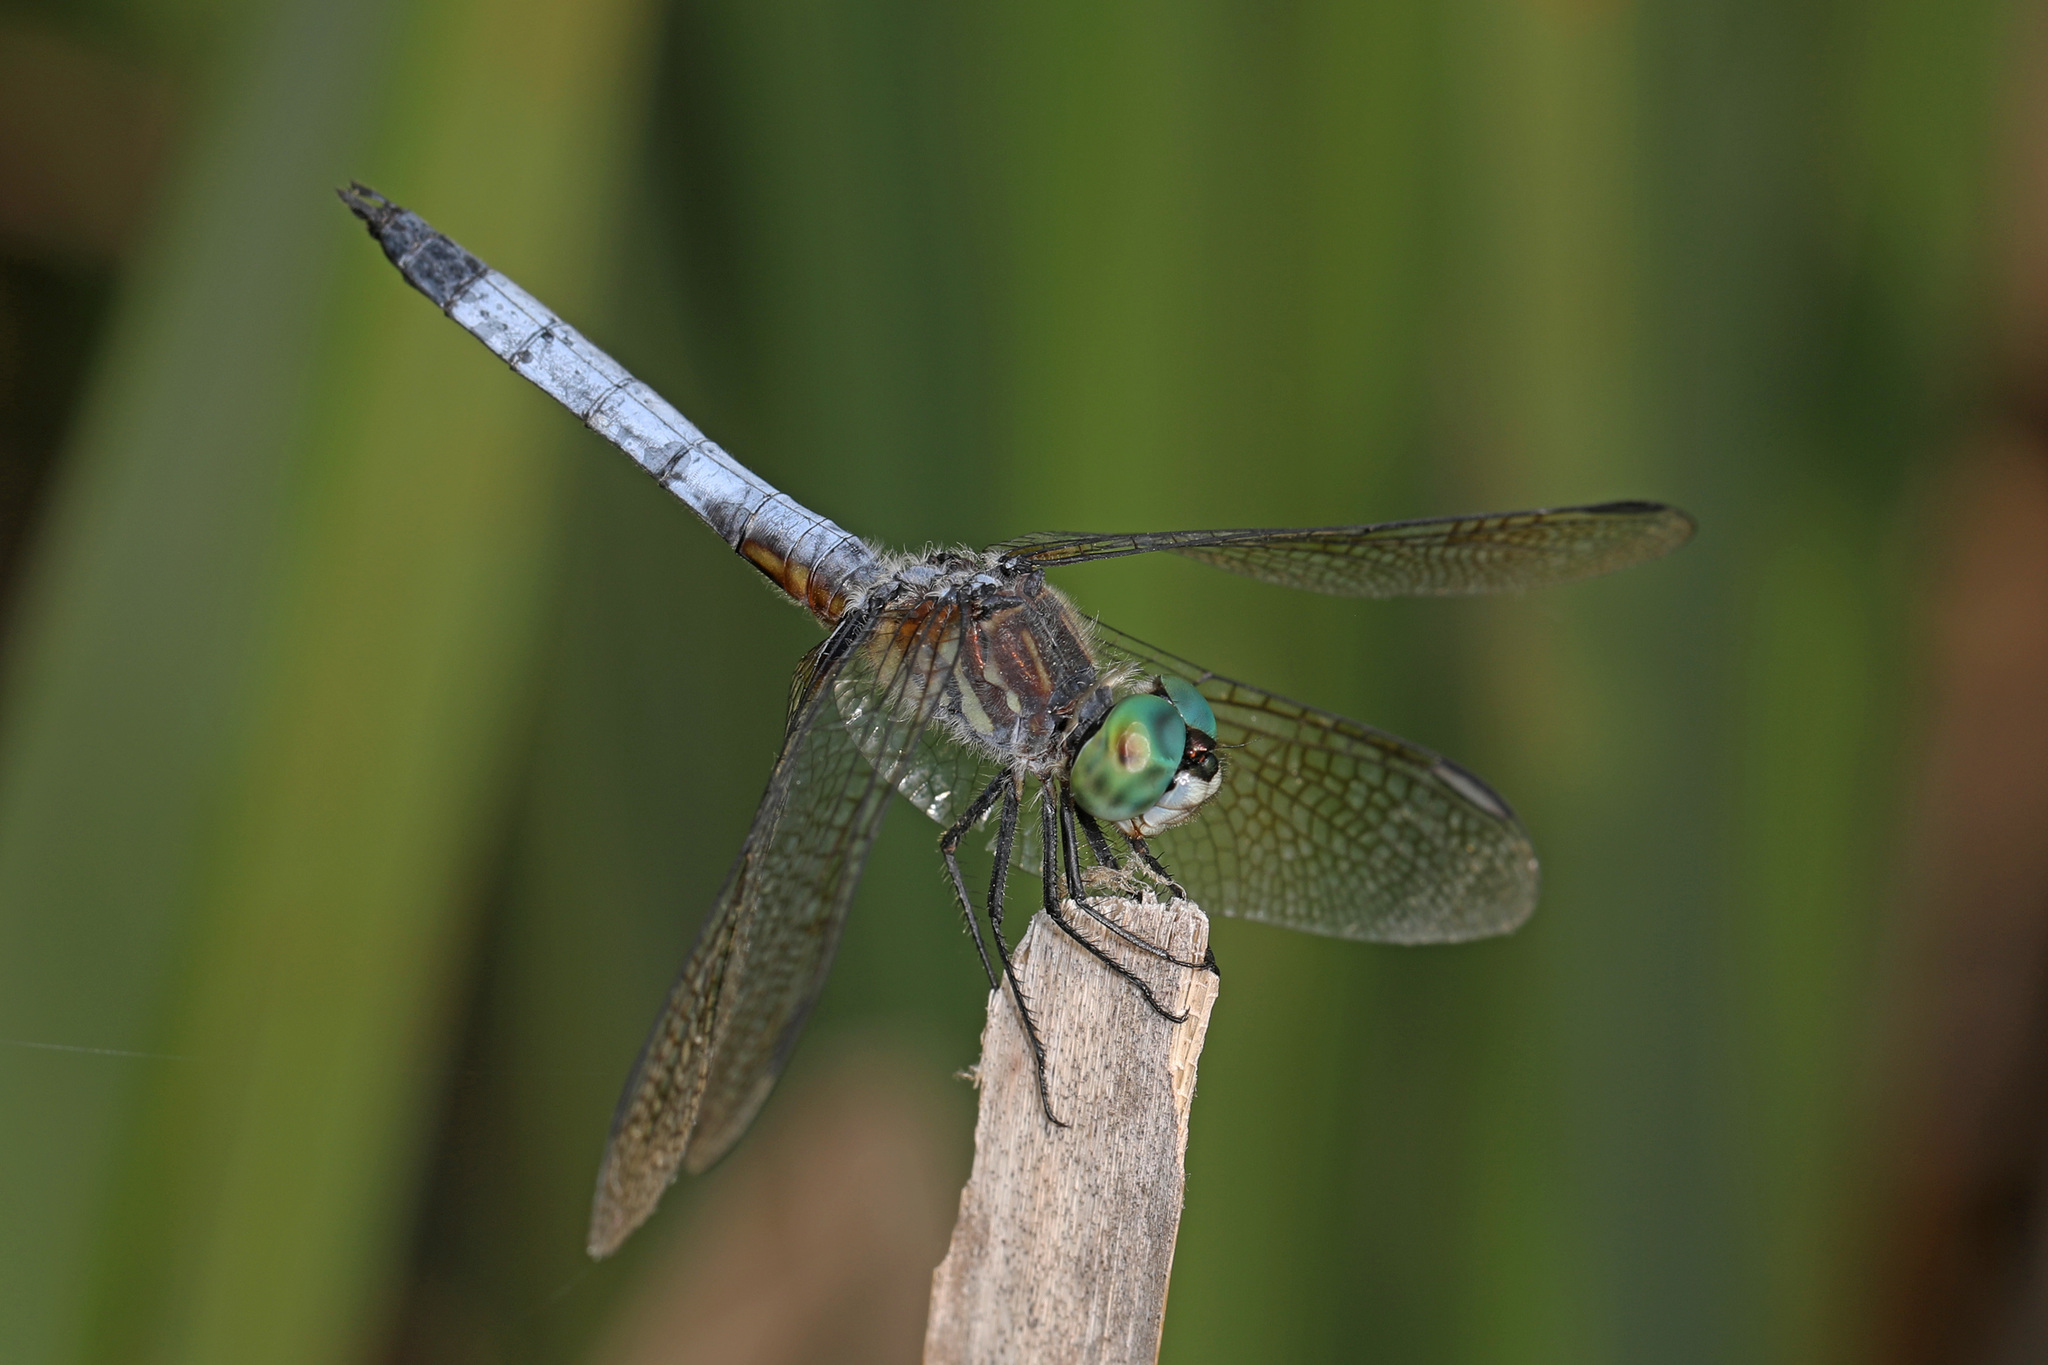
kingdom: Animalia
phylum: Arthropoda
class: Insecta
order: Odonata
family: Libellulidae
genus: Pachydiplax
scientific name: Pachydiplax longipennis
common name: Blue dasher
